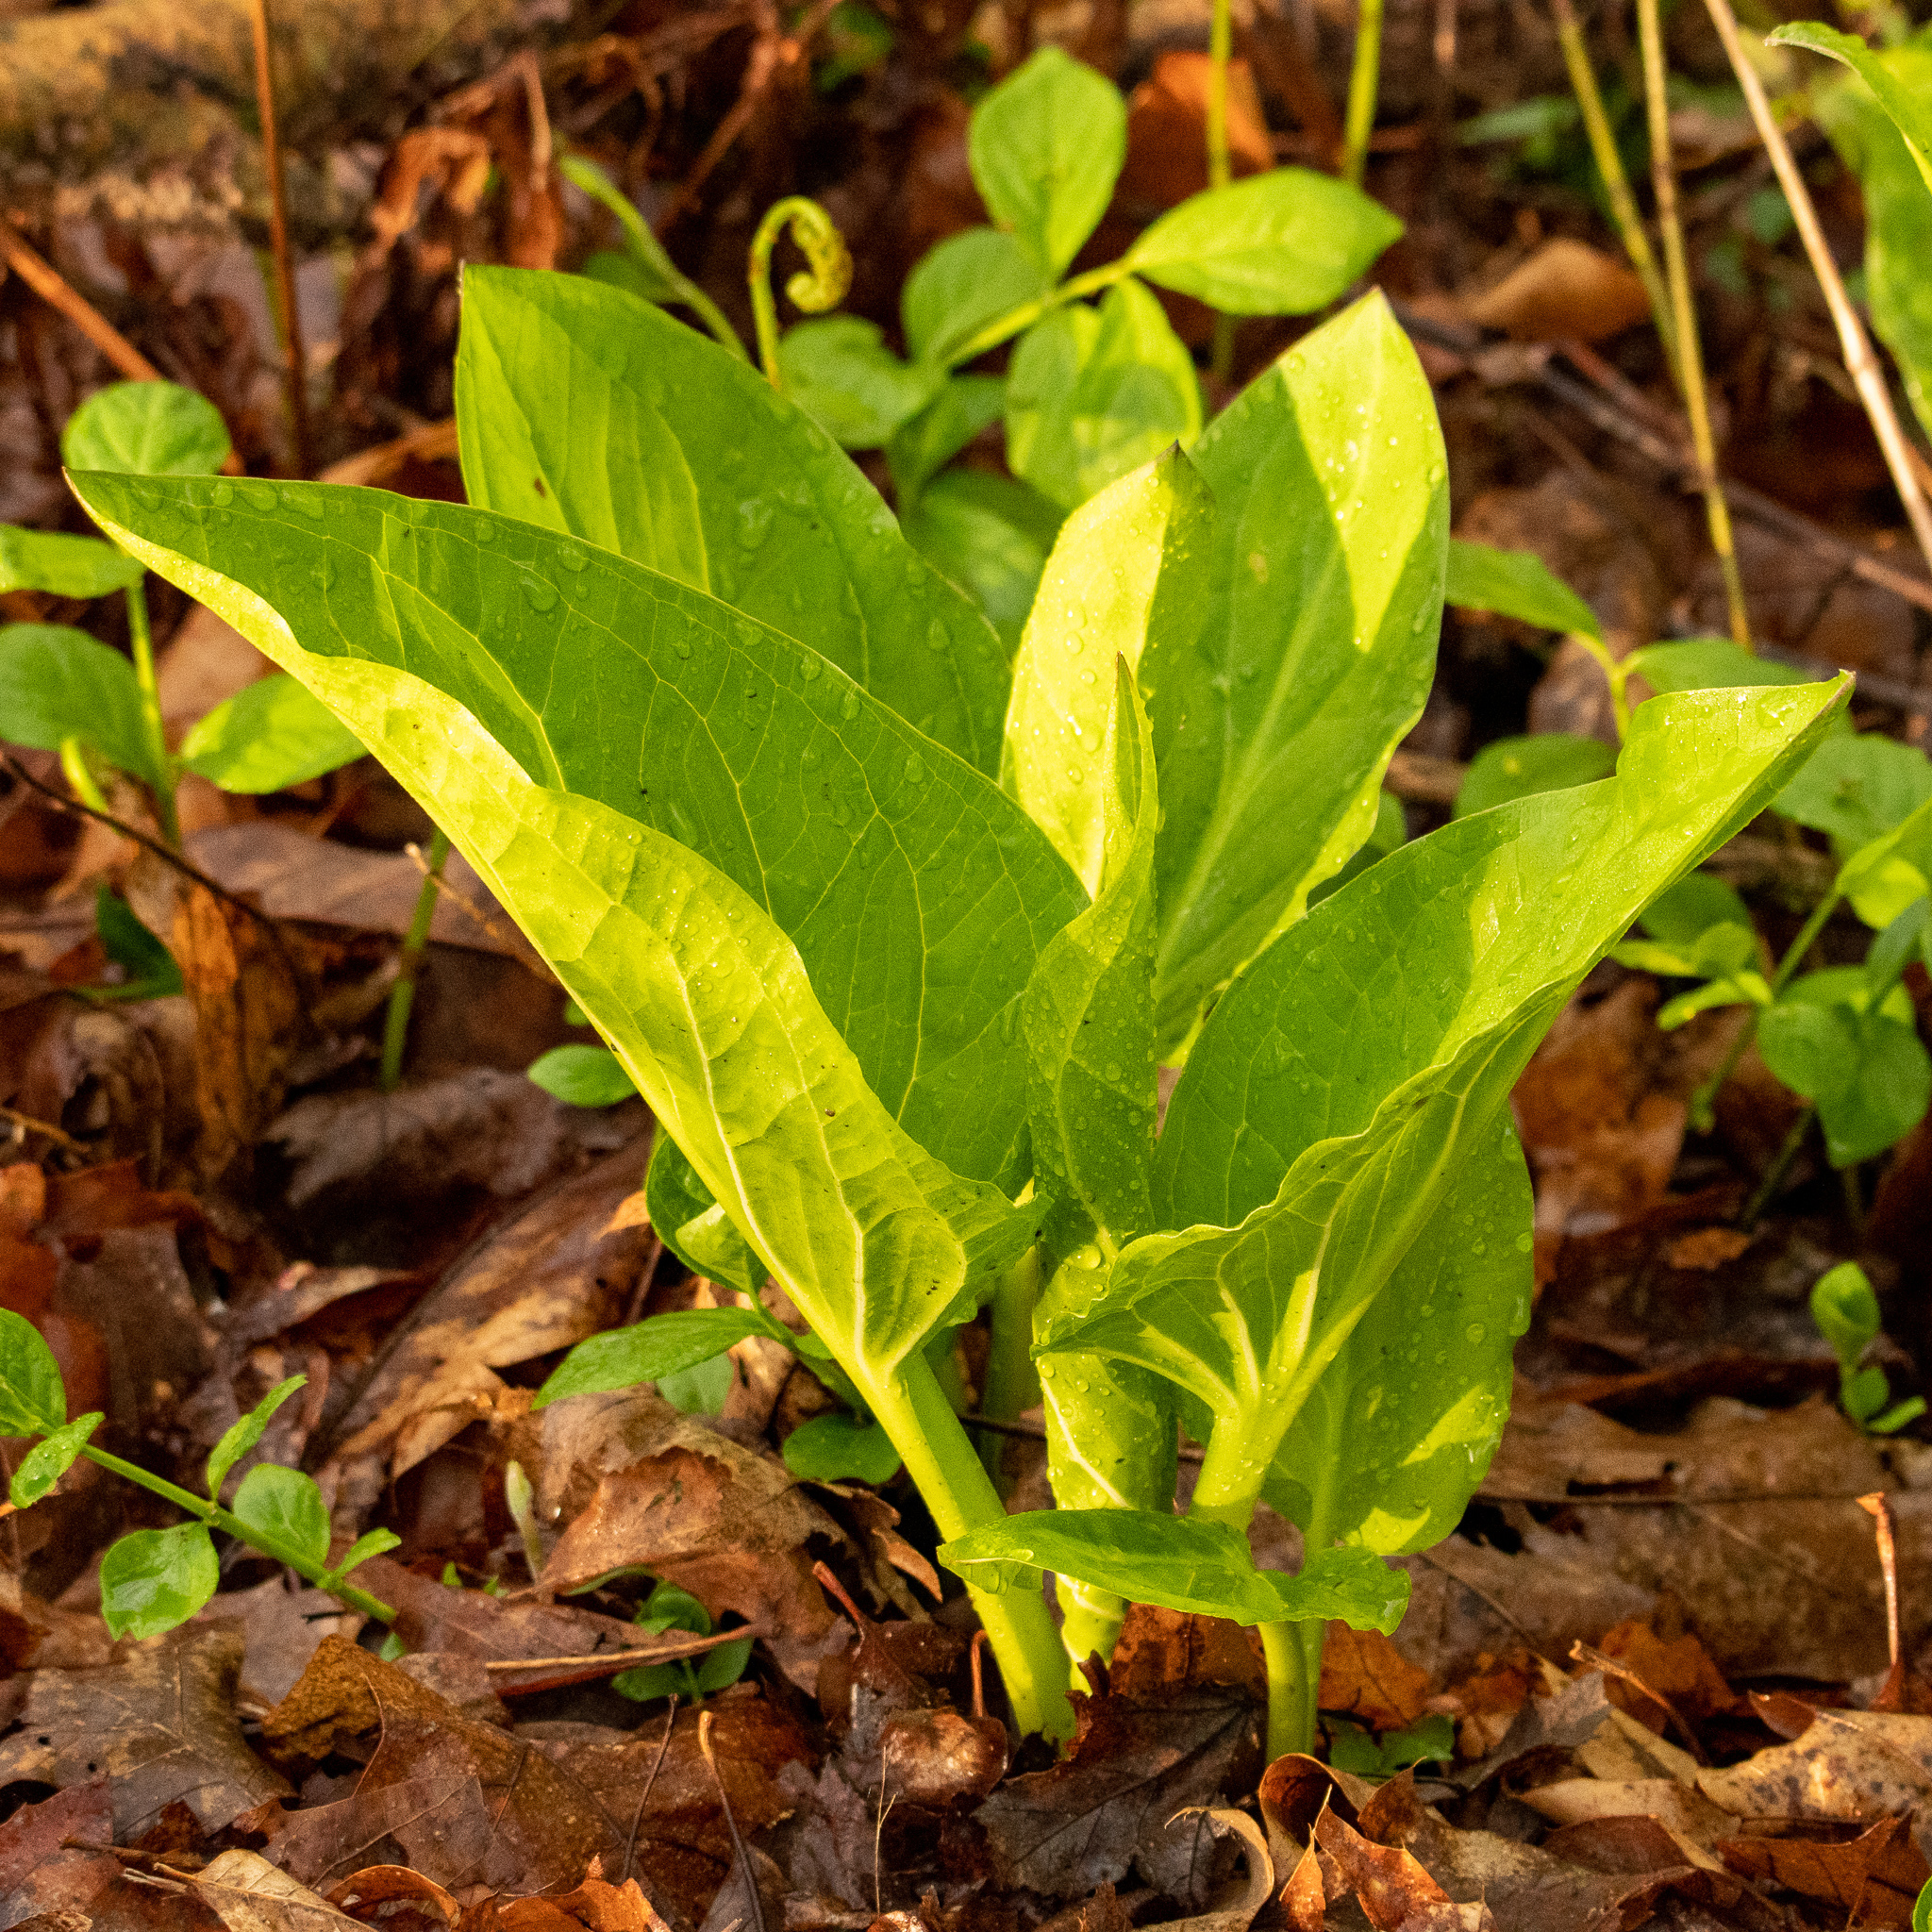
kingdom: Plantae
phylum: Tracheophyta
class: Liliopsida
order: Alismatales
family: Araceae
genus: Symplocarpus
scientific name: Symplocarpus foetidus
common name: Eastern skunk cabbage
